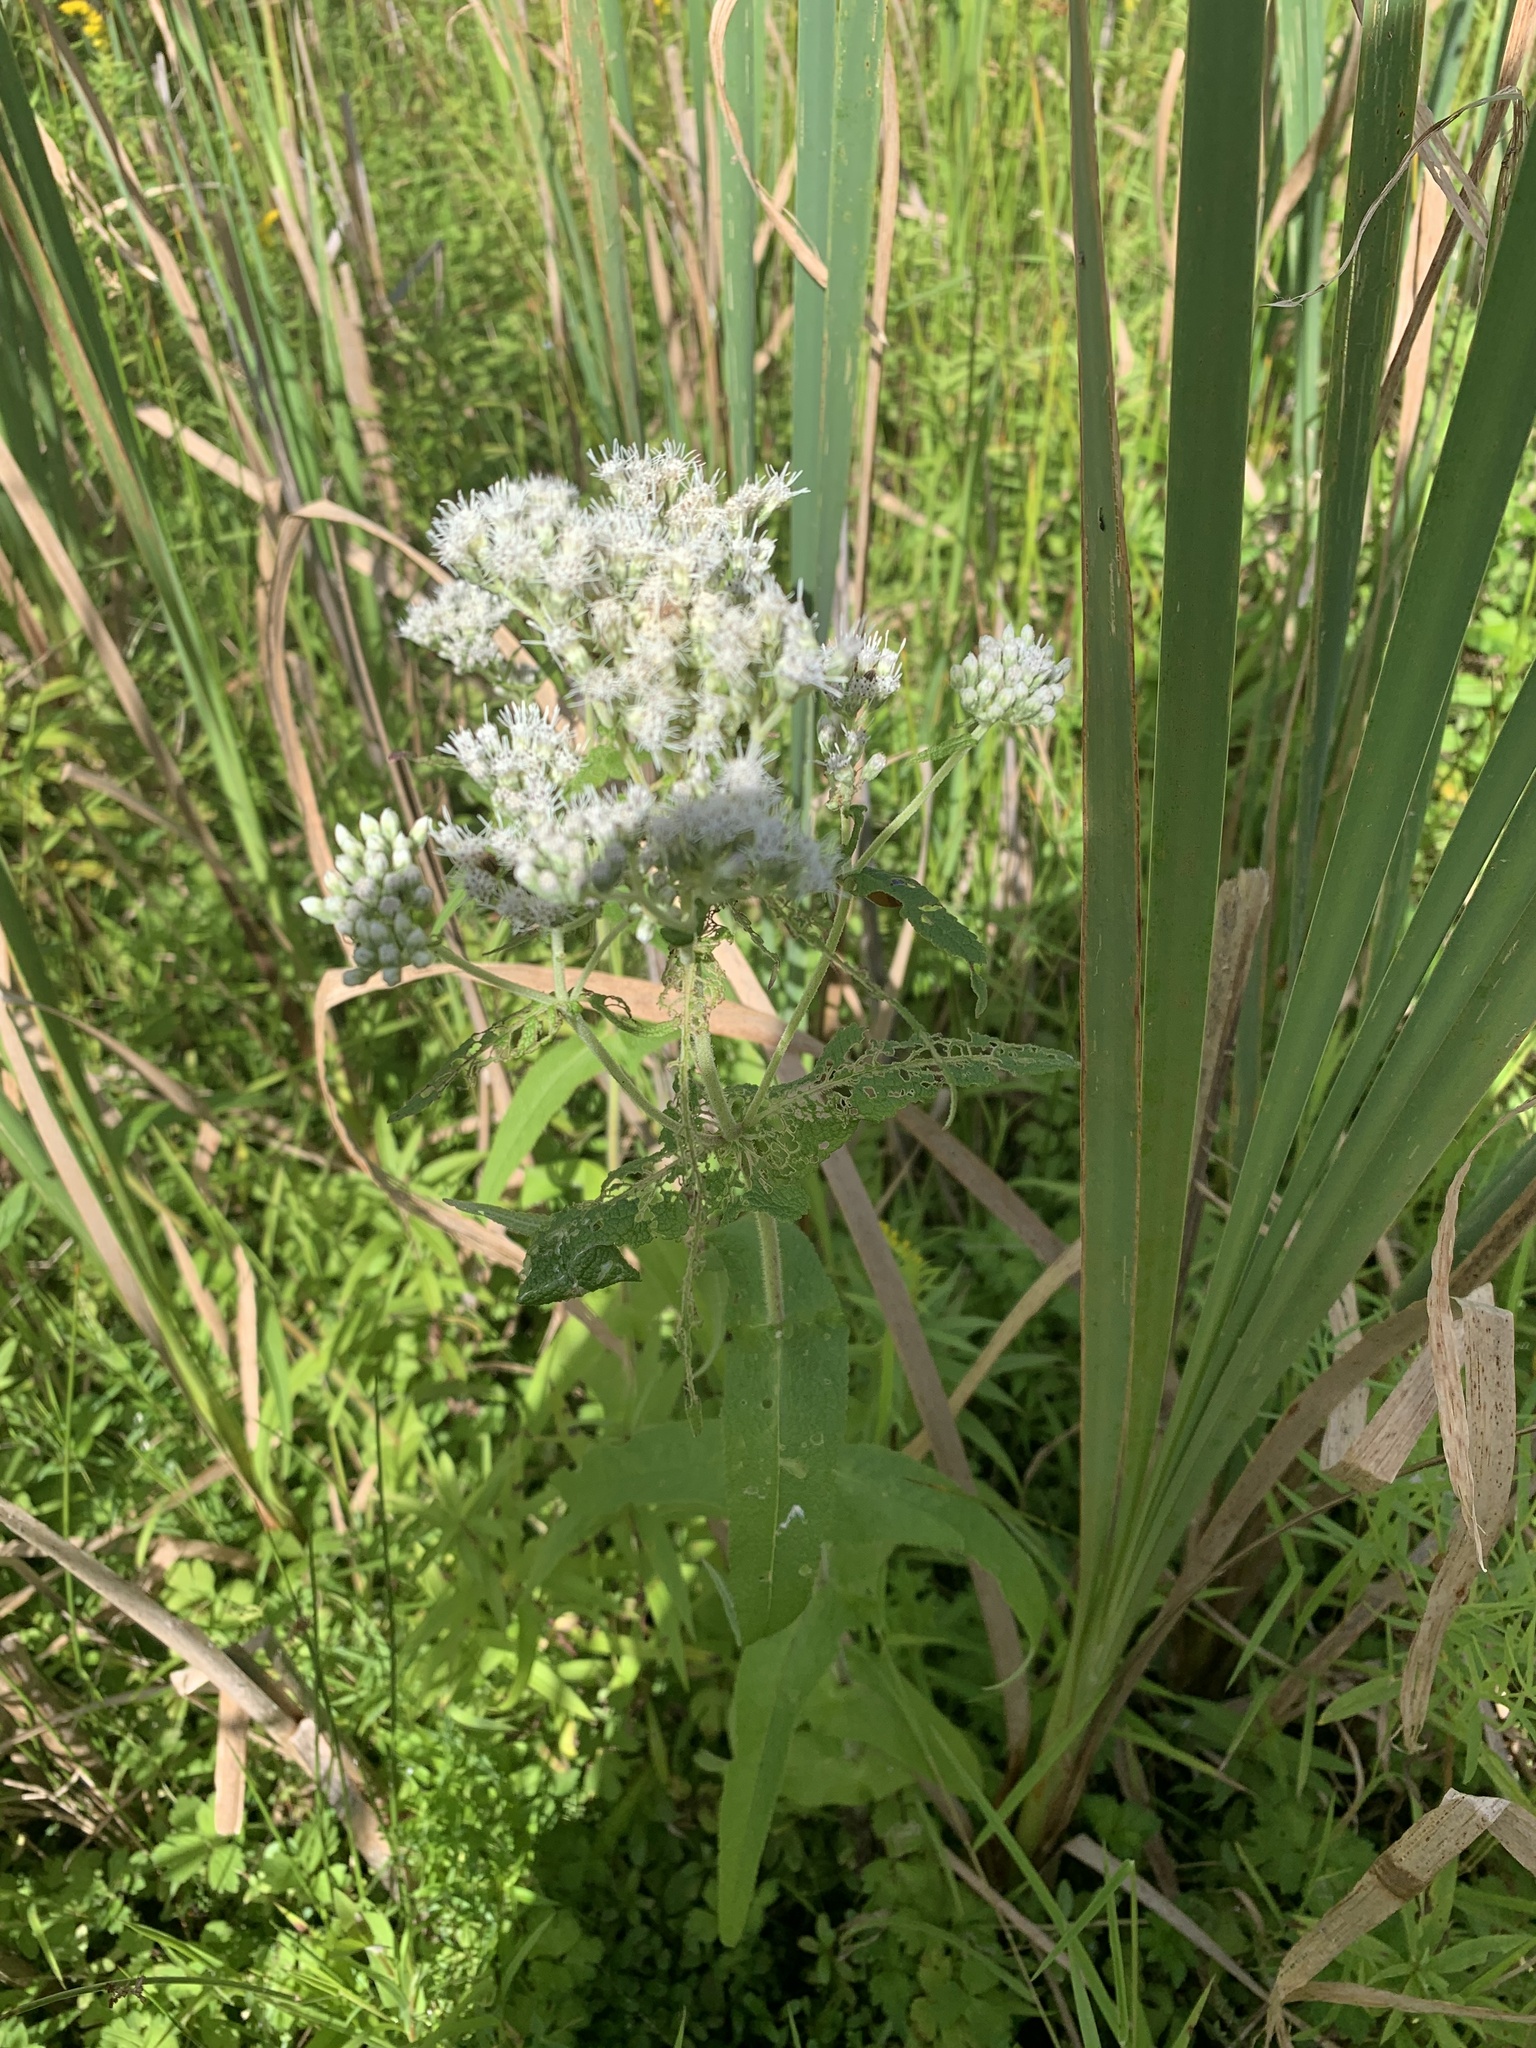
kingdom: Plantae
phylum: Tracheophyta
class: Magnoliopsida
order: Asterales
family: Asteraceae
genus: Eupatorium
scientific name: Eupatorium perfoliatum
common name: Boneset
